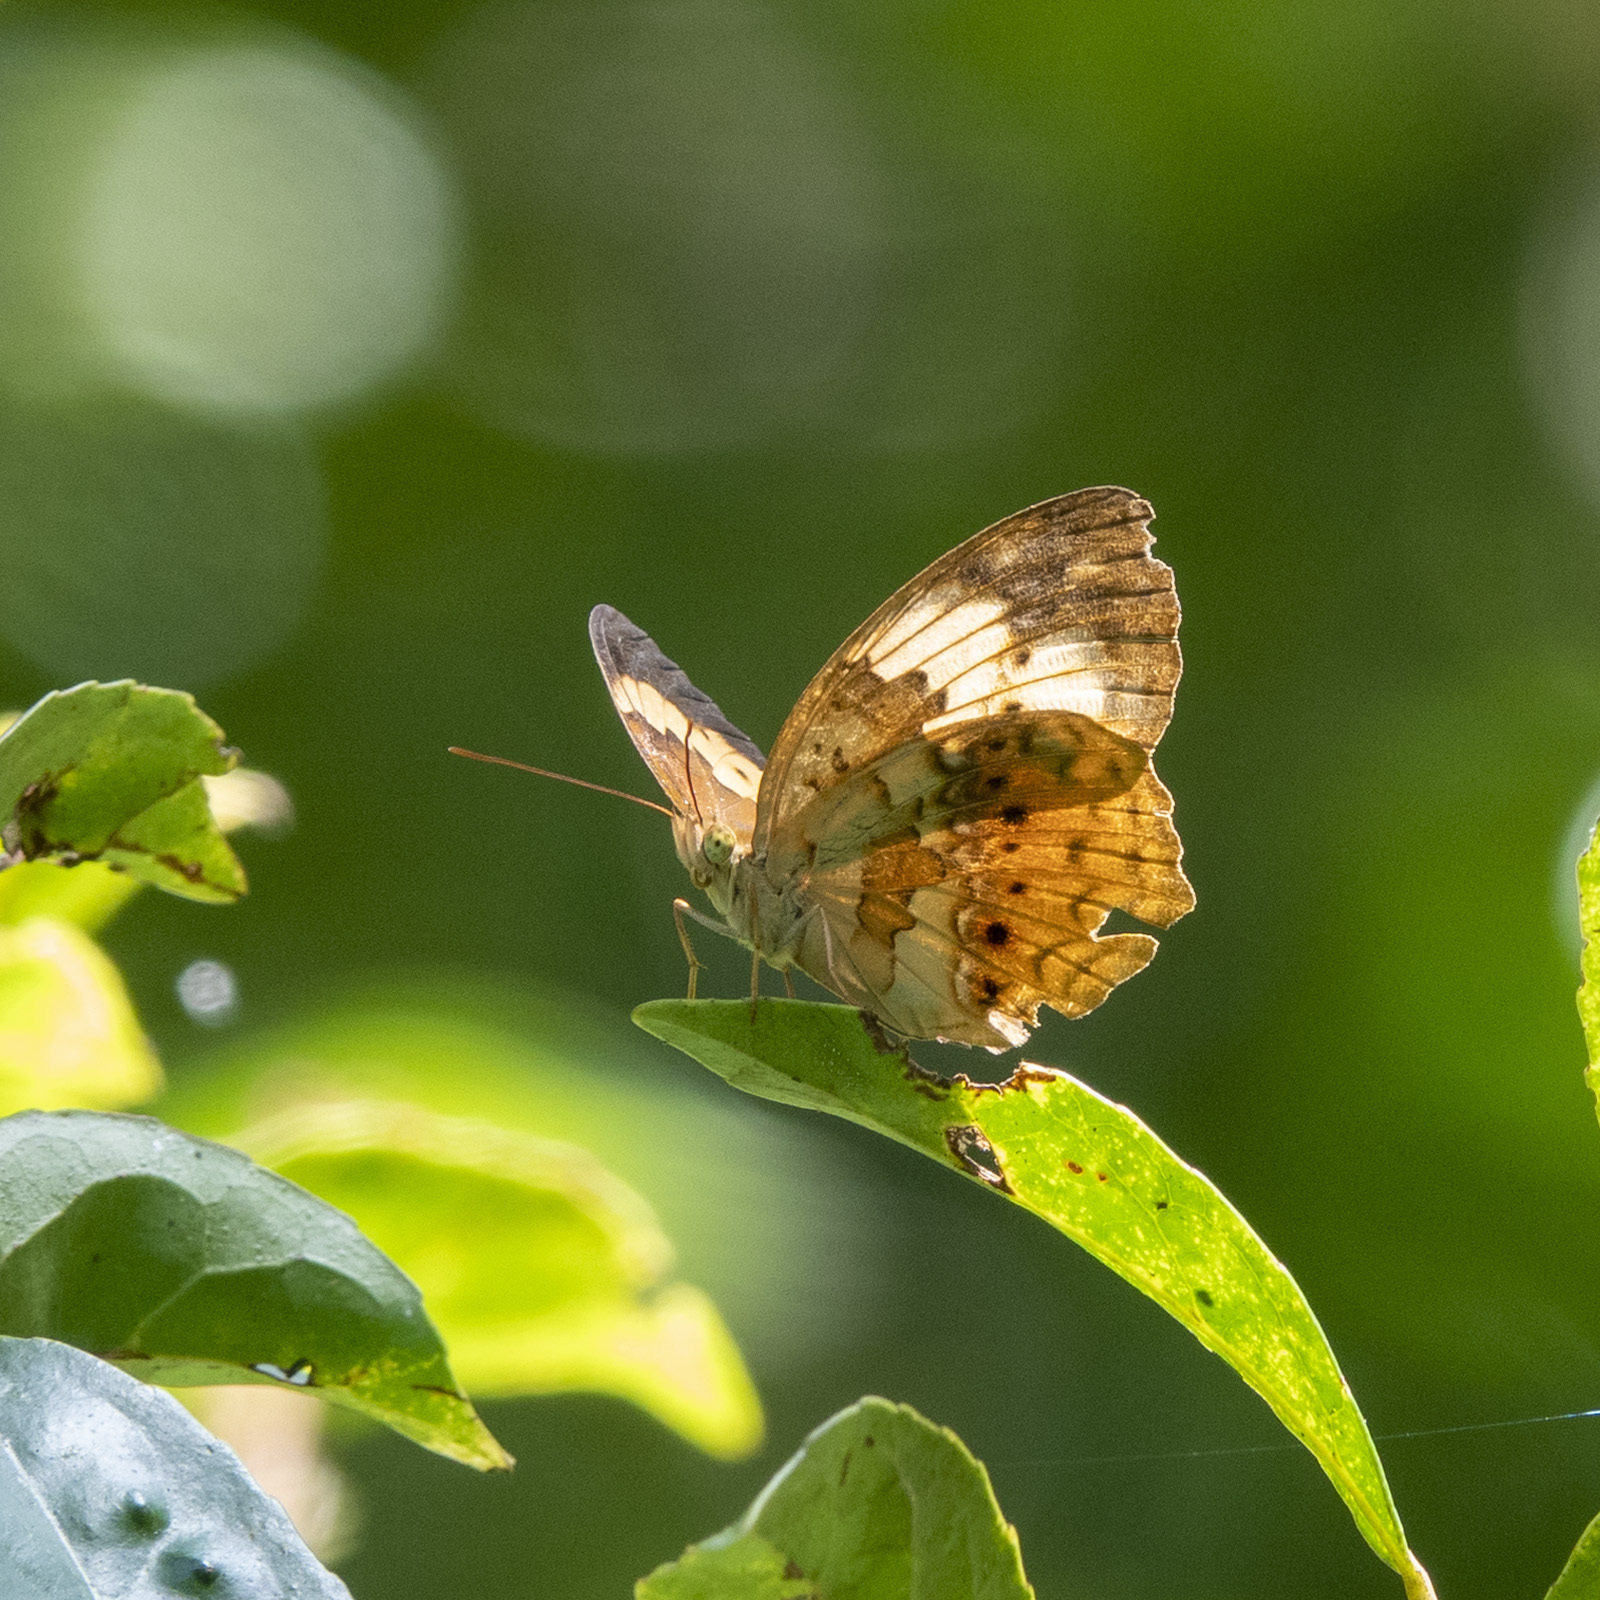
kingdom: Animalia
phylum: Arthropoda
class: Insecta
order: Lepidoptera
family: Nymphalidae
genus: Cupha
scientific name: Cupha erymanthis
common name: Rustic
